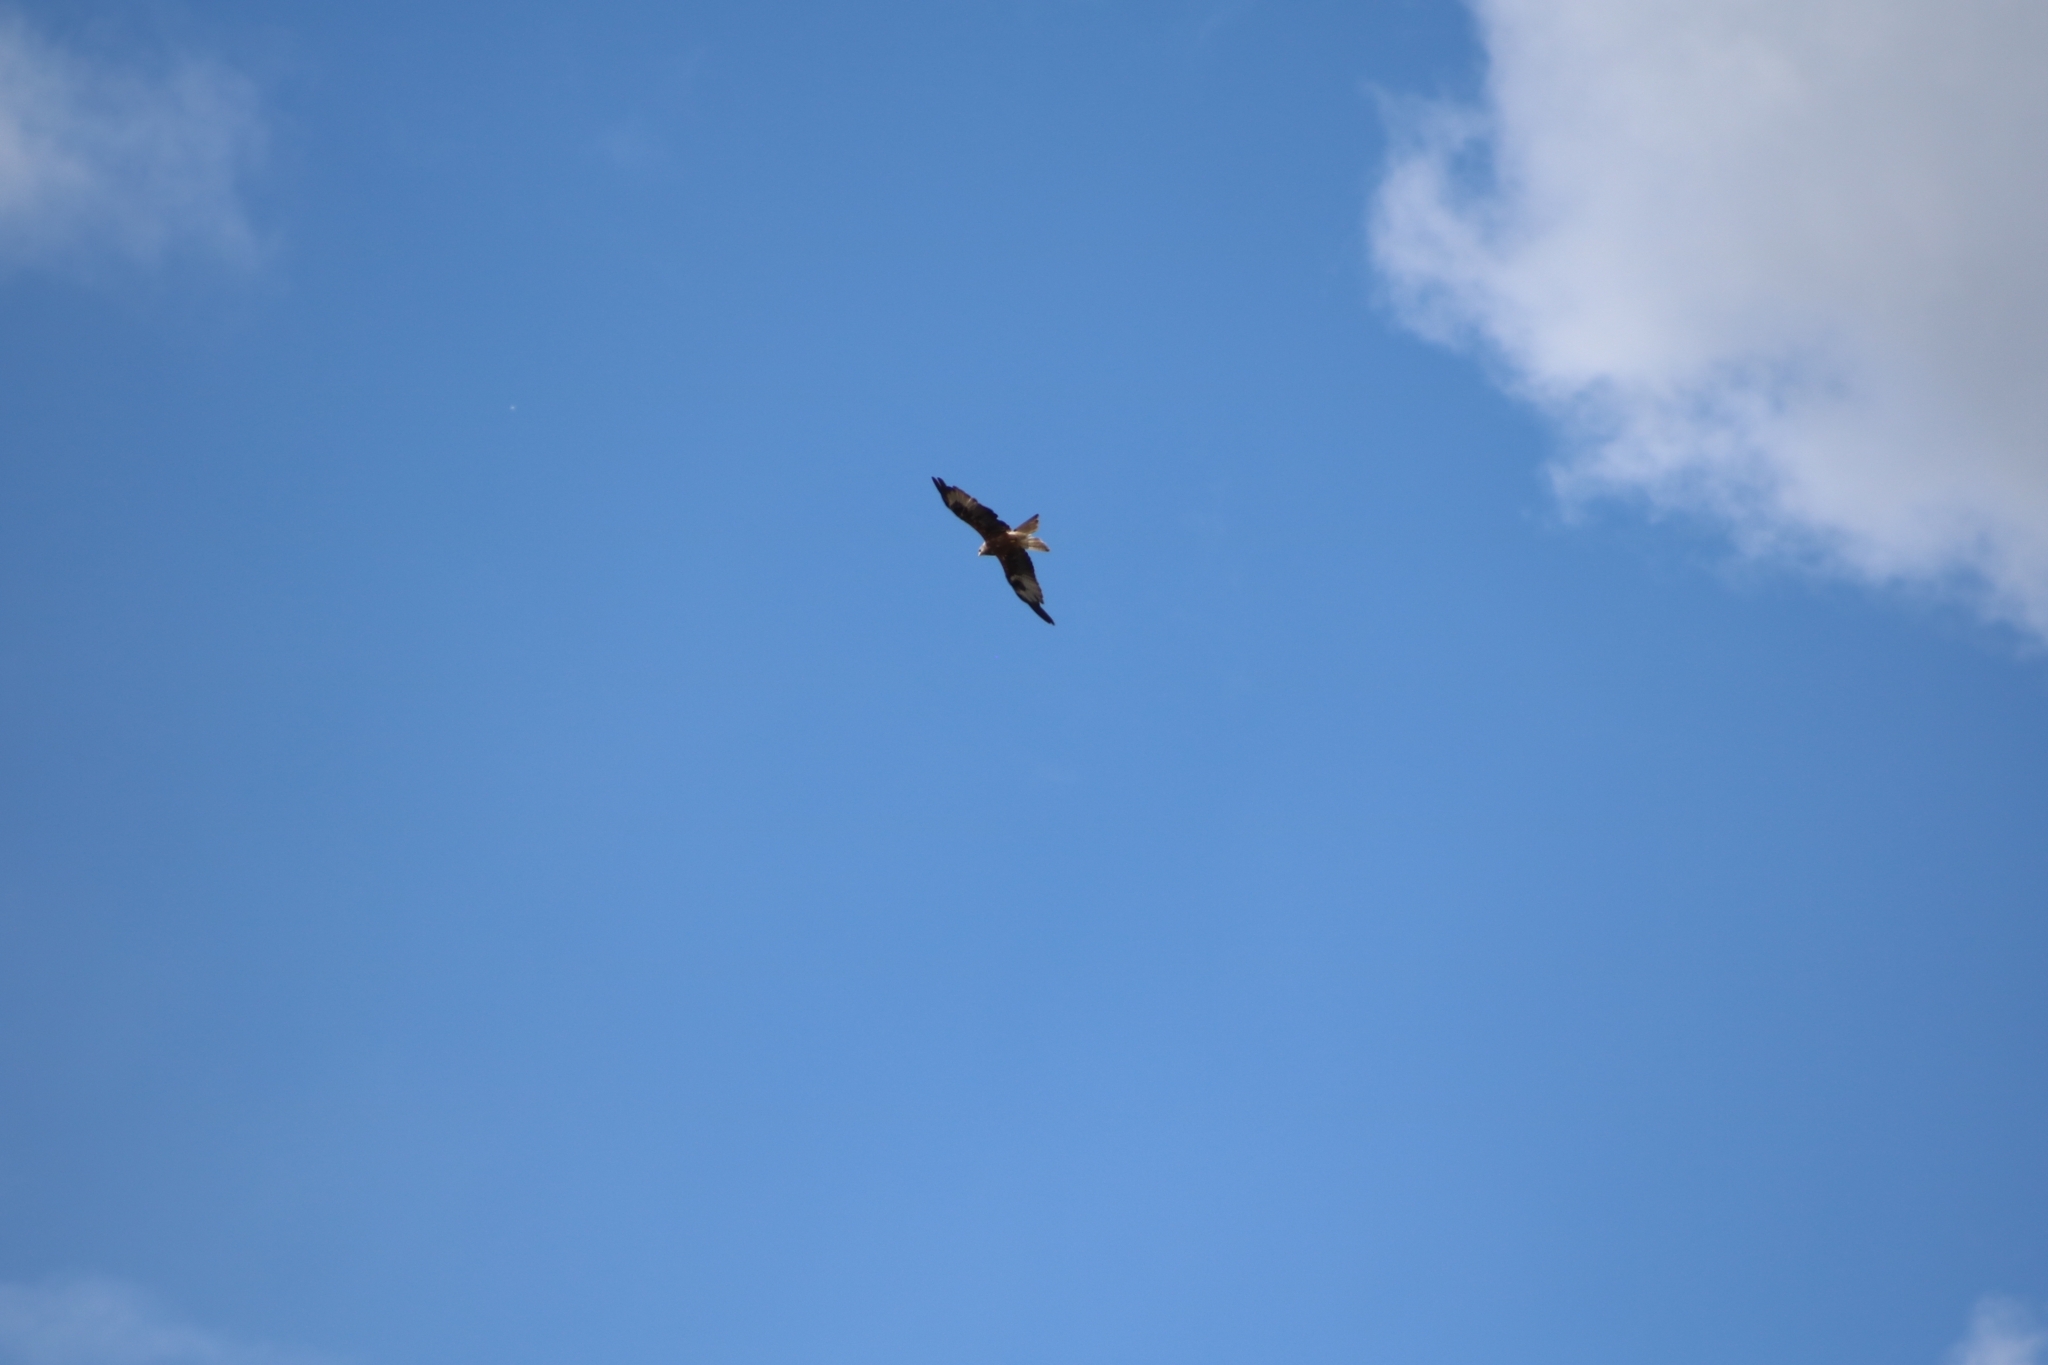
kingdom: Animalia
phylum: Chordata
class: Aves
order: Accipitriformes
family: Accipitridae
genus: Milvus
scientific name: Milvus milvus
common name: Red kite
